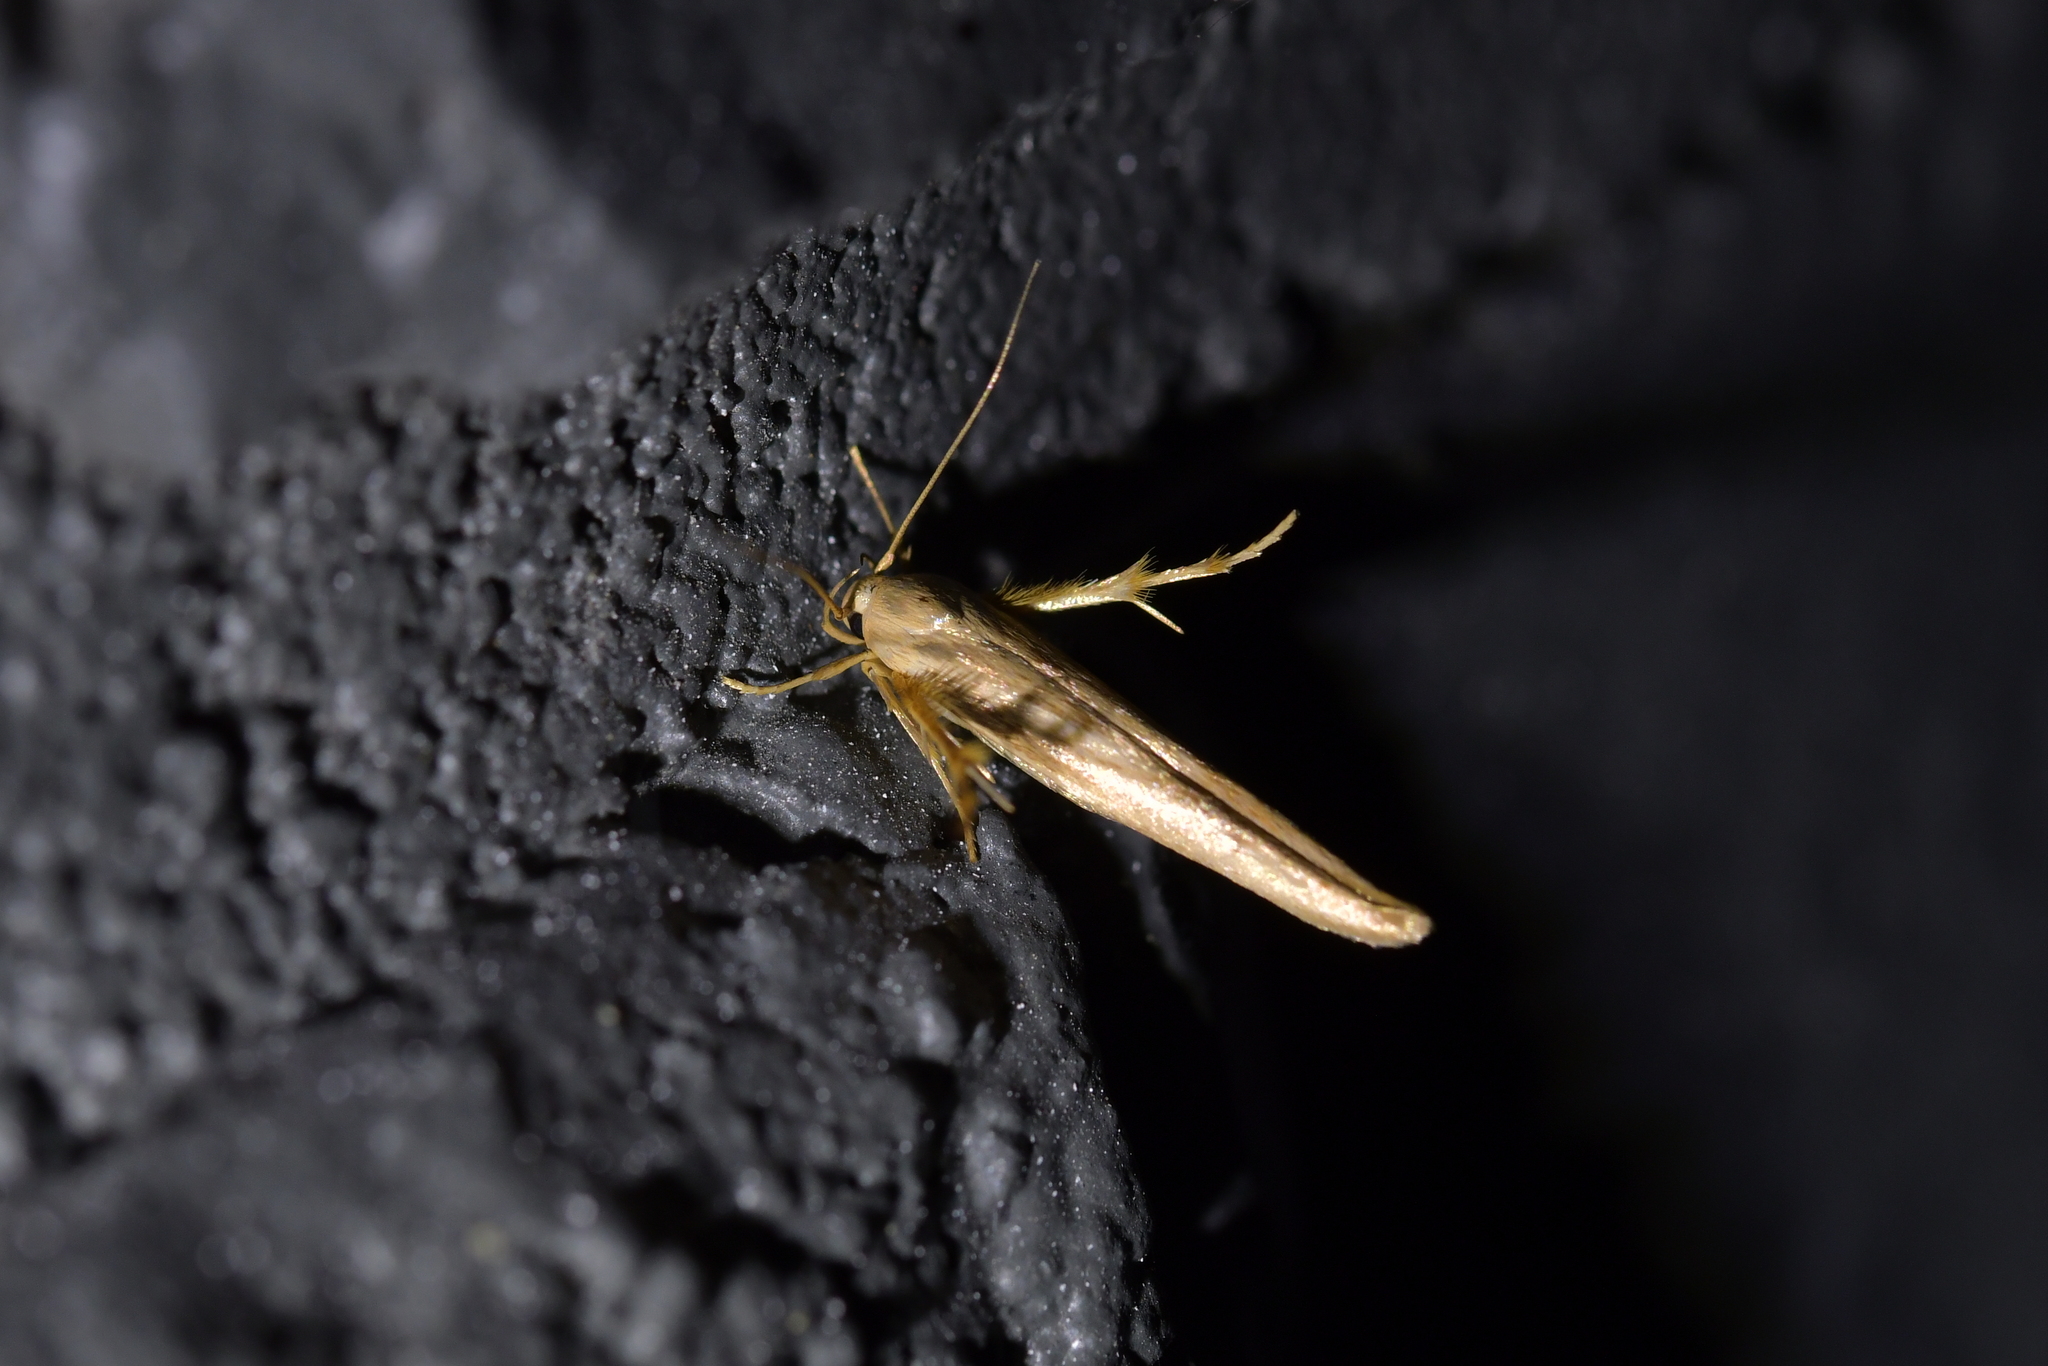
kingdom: Animalia
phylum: Arthropoda
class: Insecta
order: Lepidoptera
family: Stathmopodidae
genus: Stathmopoda
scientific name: Stathmopoda aposema
